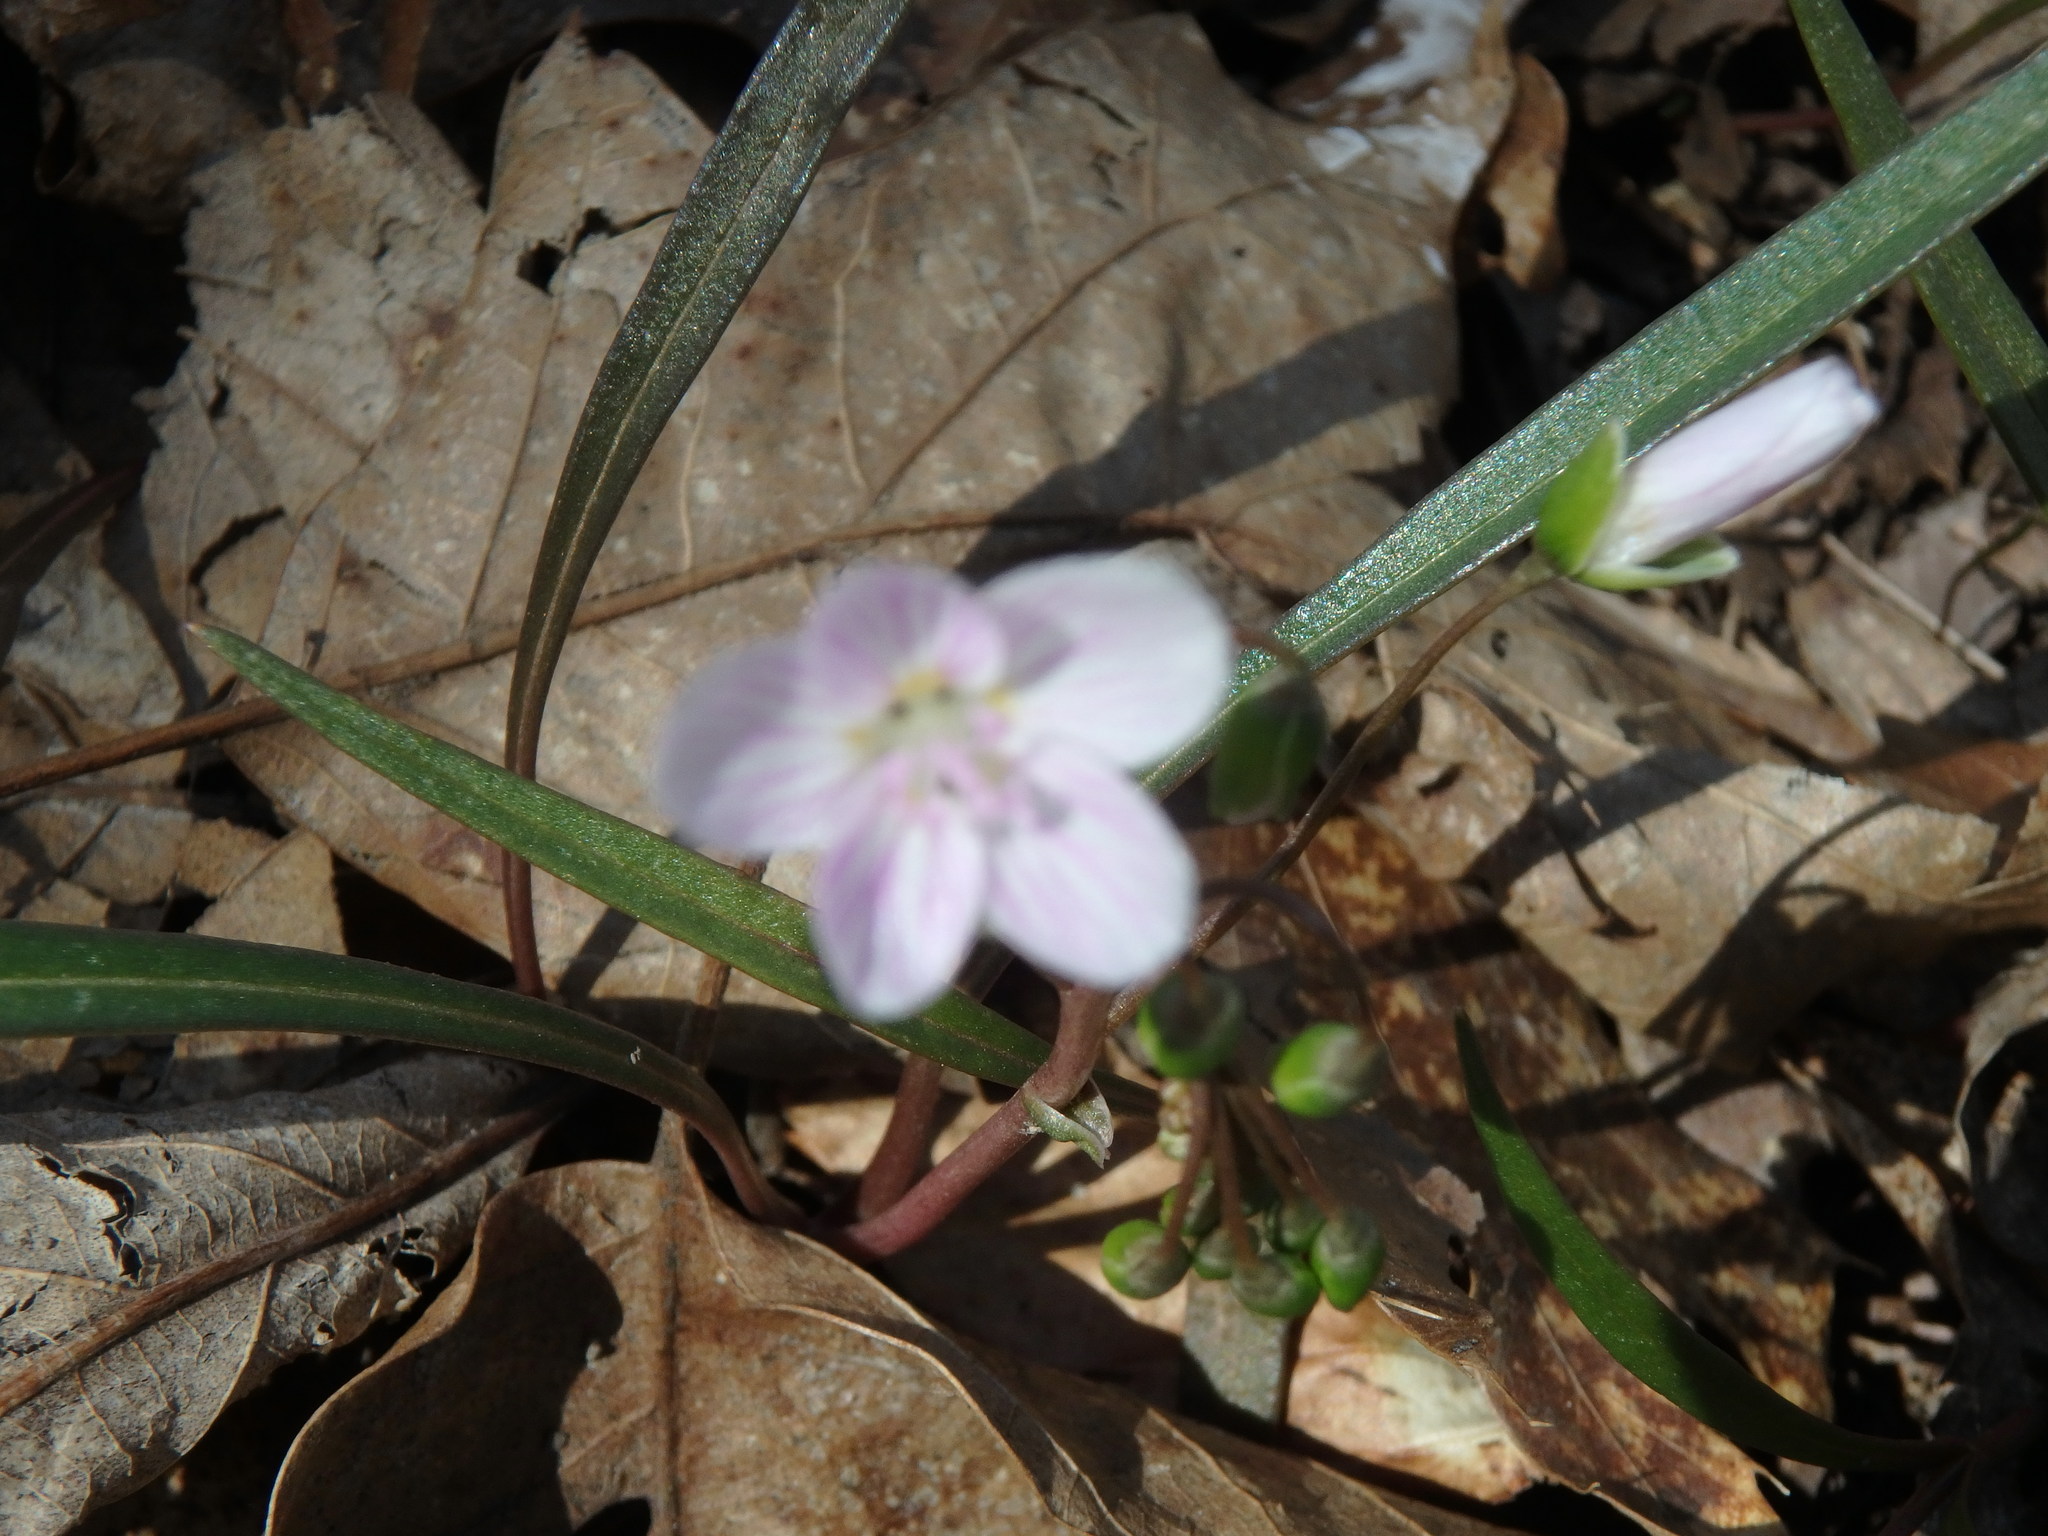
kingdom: Plantae
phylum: Tracheophyta
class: Magnoliopsida
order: Caryophyllales
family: Montiaceae
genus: Claytonia
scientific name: Claytonia virginica
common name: Virginia springbeauty
